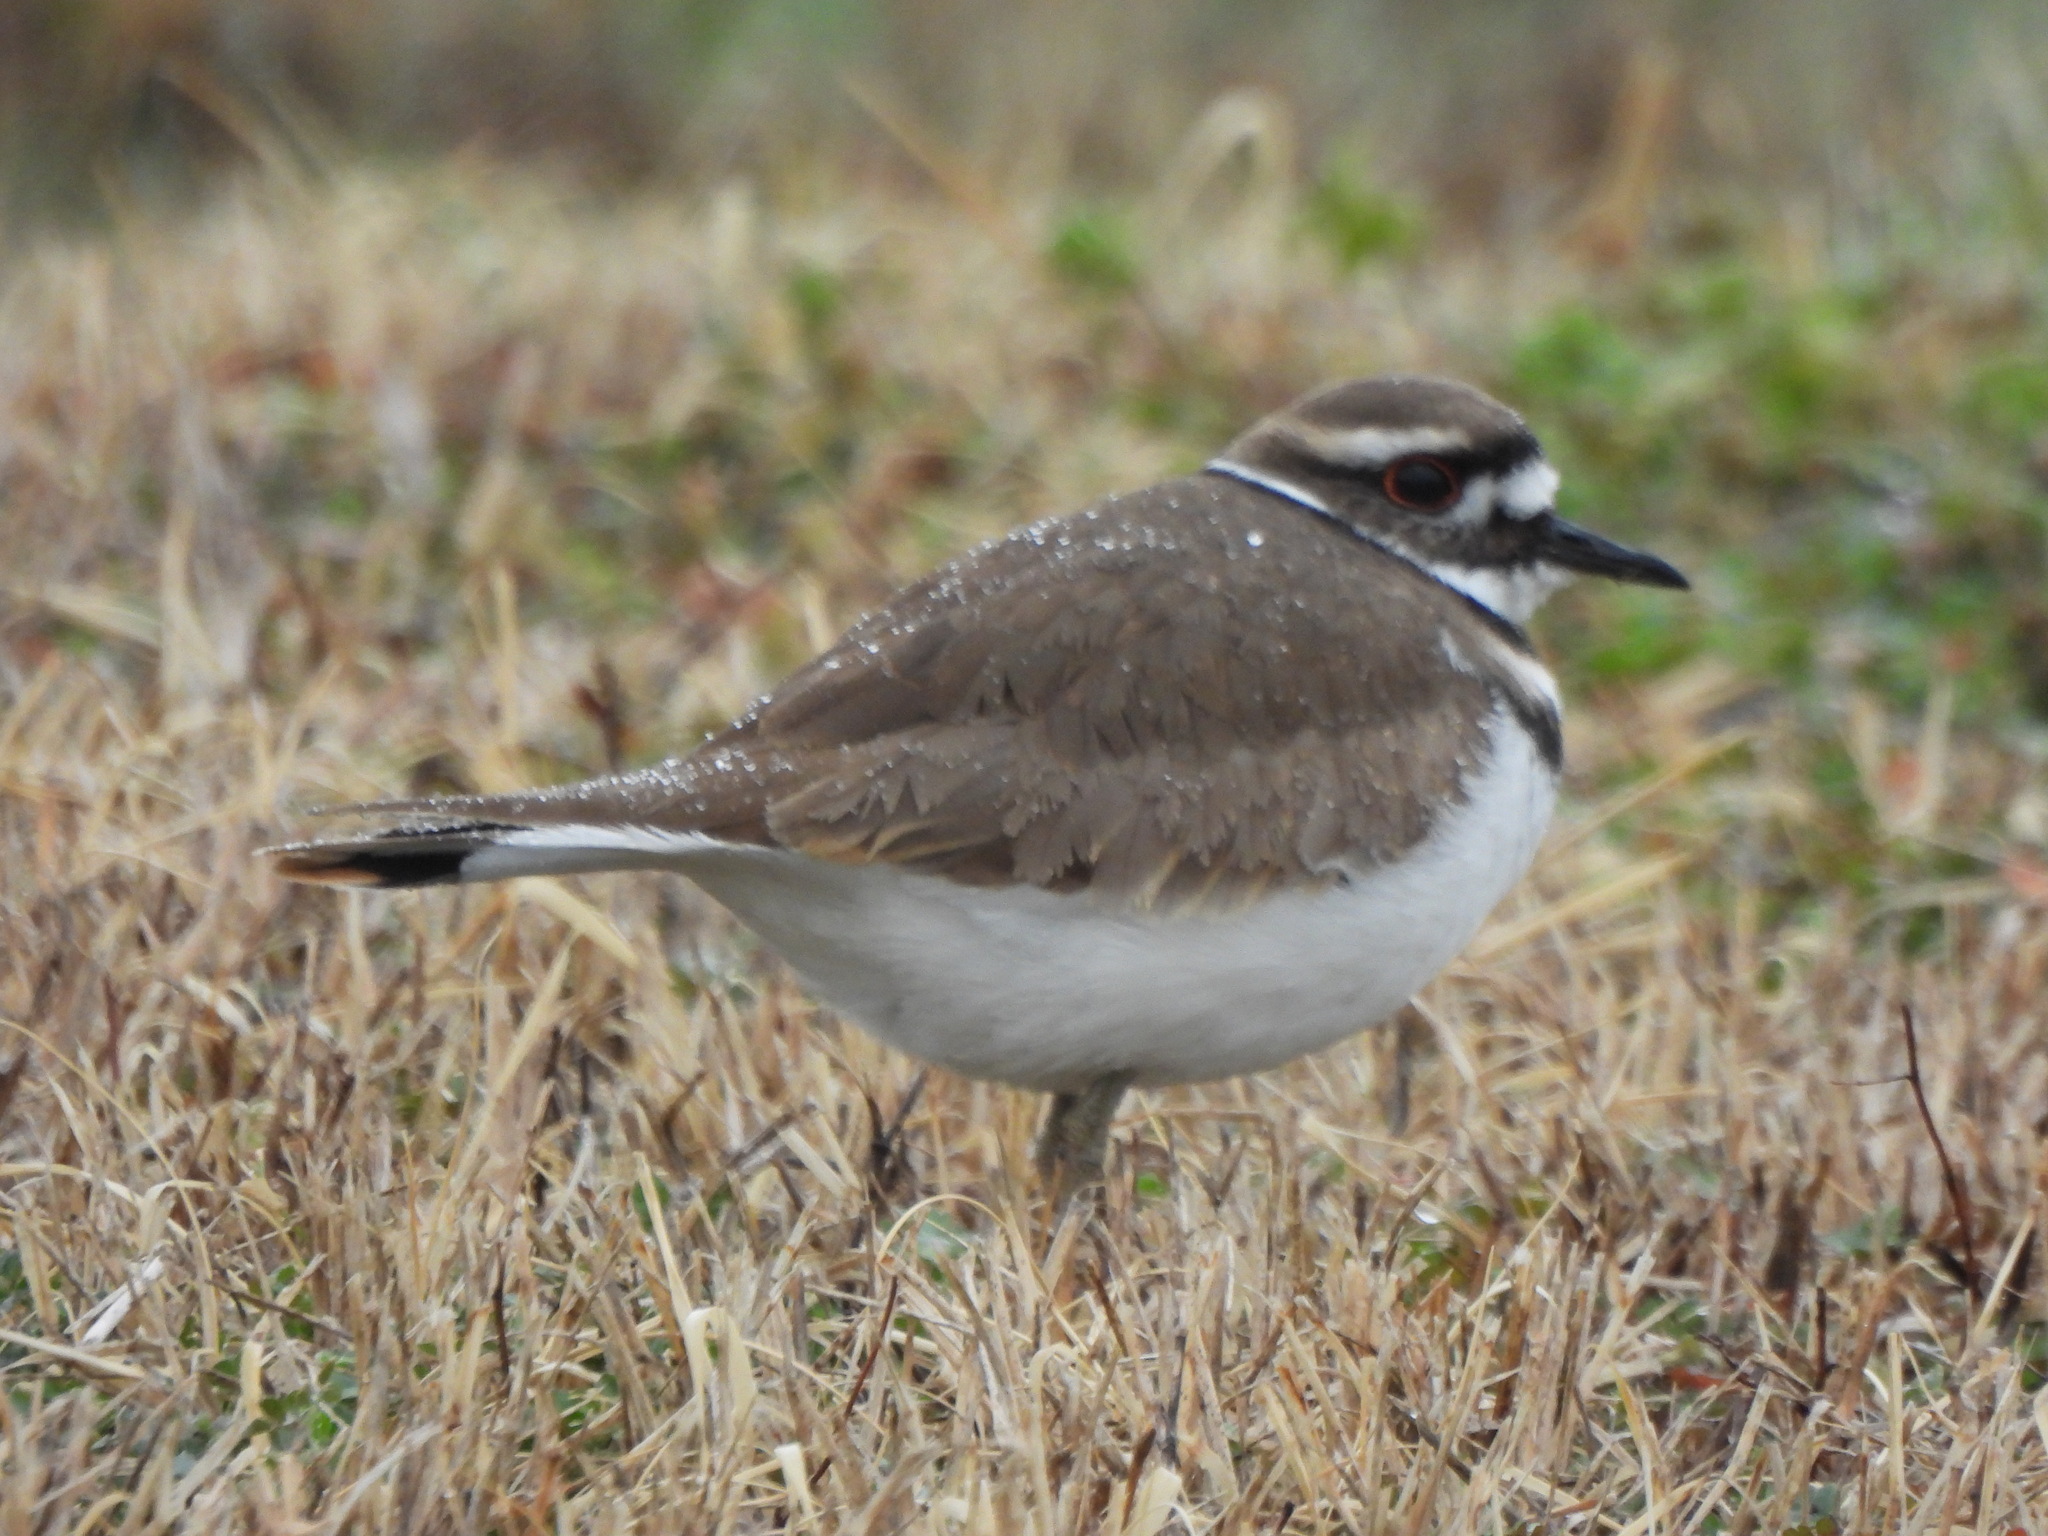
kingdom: Animalia
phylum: Chordata
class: Aves
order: Charadriiformes
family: Charadriidae
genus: Charadrius
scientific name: Charadrius vociferus
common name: Killdeer
